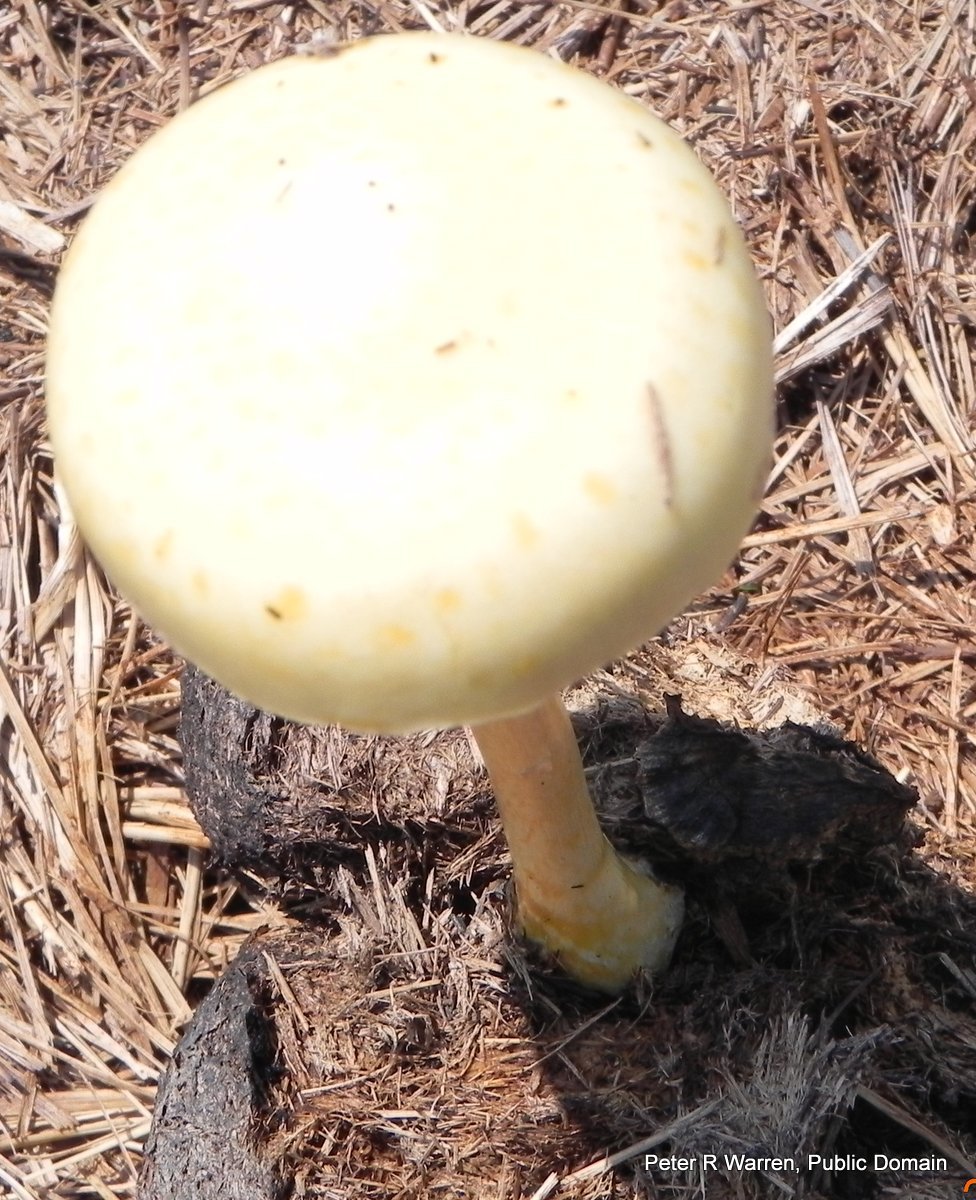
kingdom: Fungi
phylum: Basidiomycota
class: Agaricomycetes
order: Agaricales
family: Strophariaceae
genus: Protostropharia
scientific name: Protostropharia semiglobata
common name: Dung roundhead
